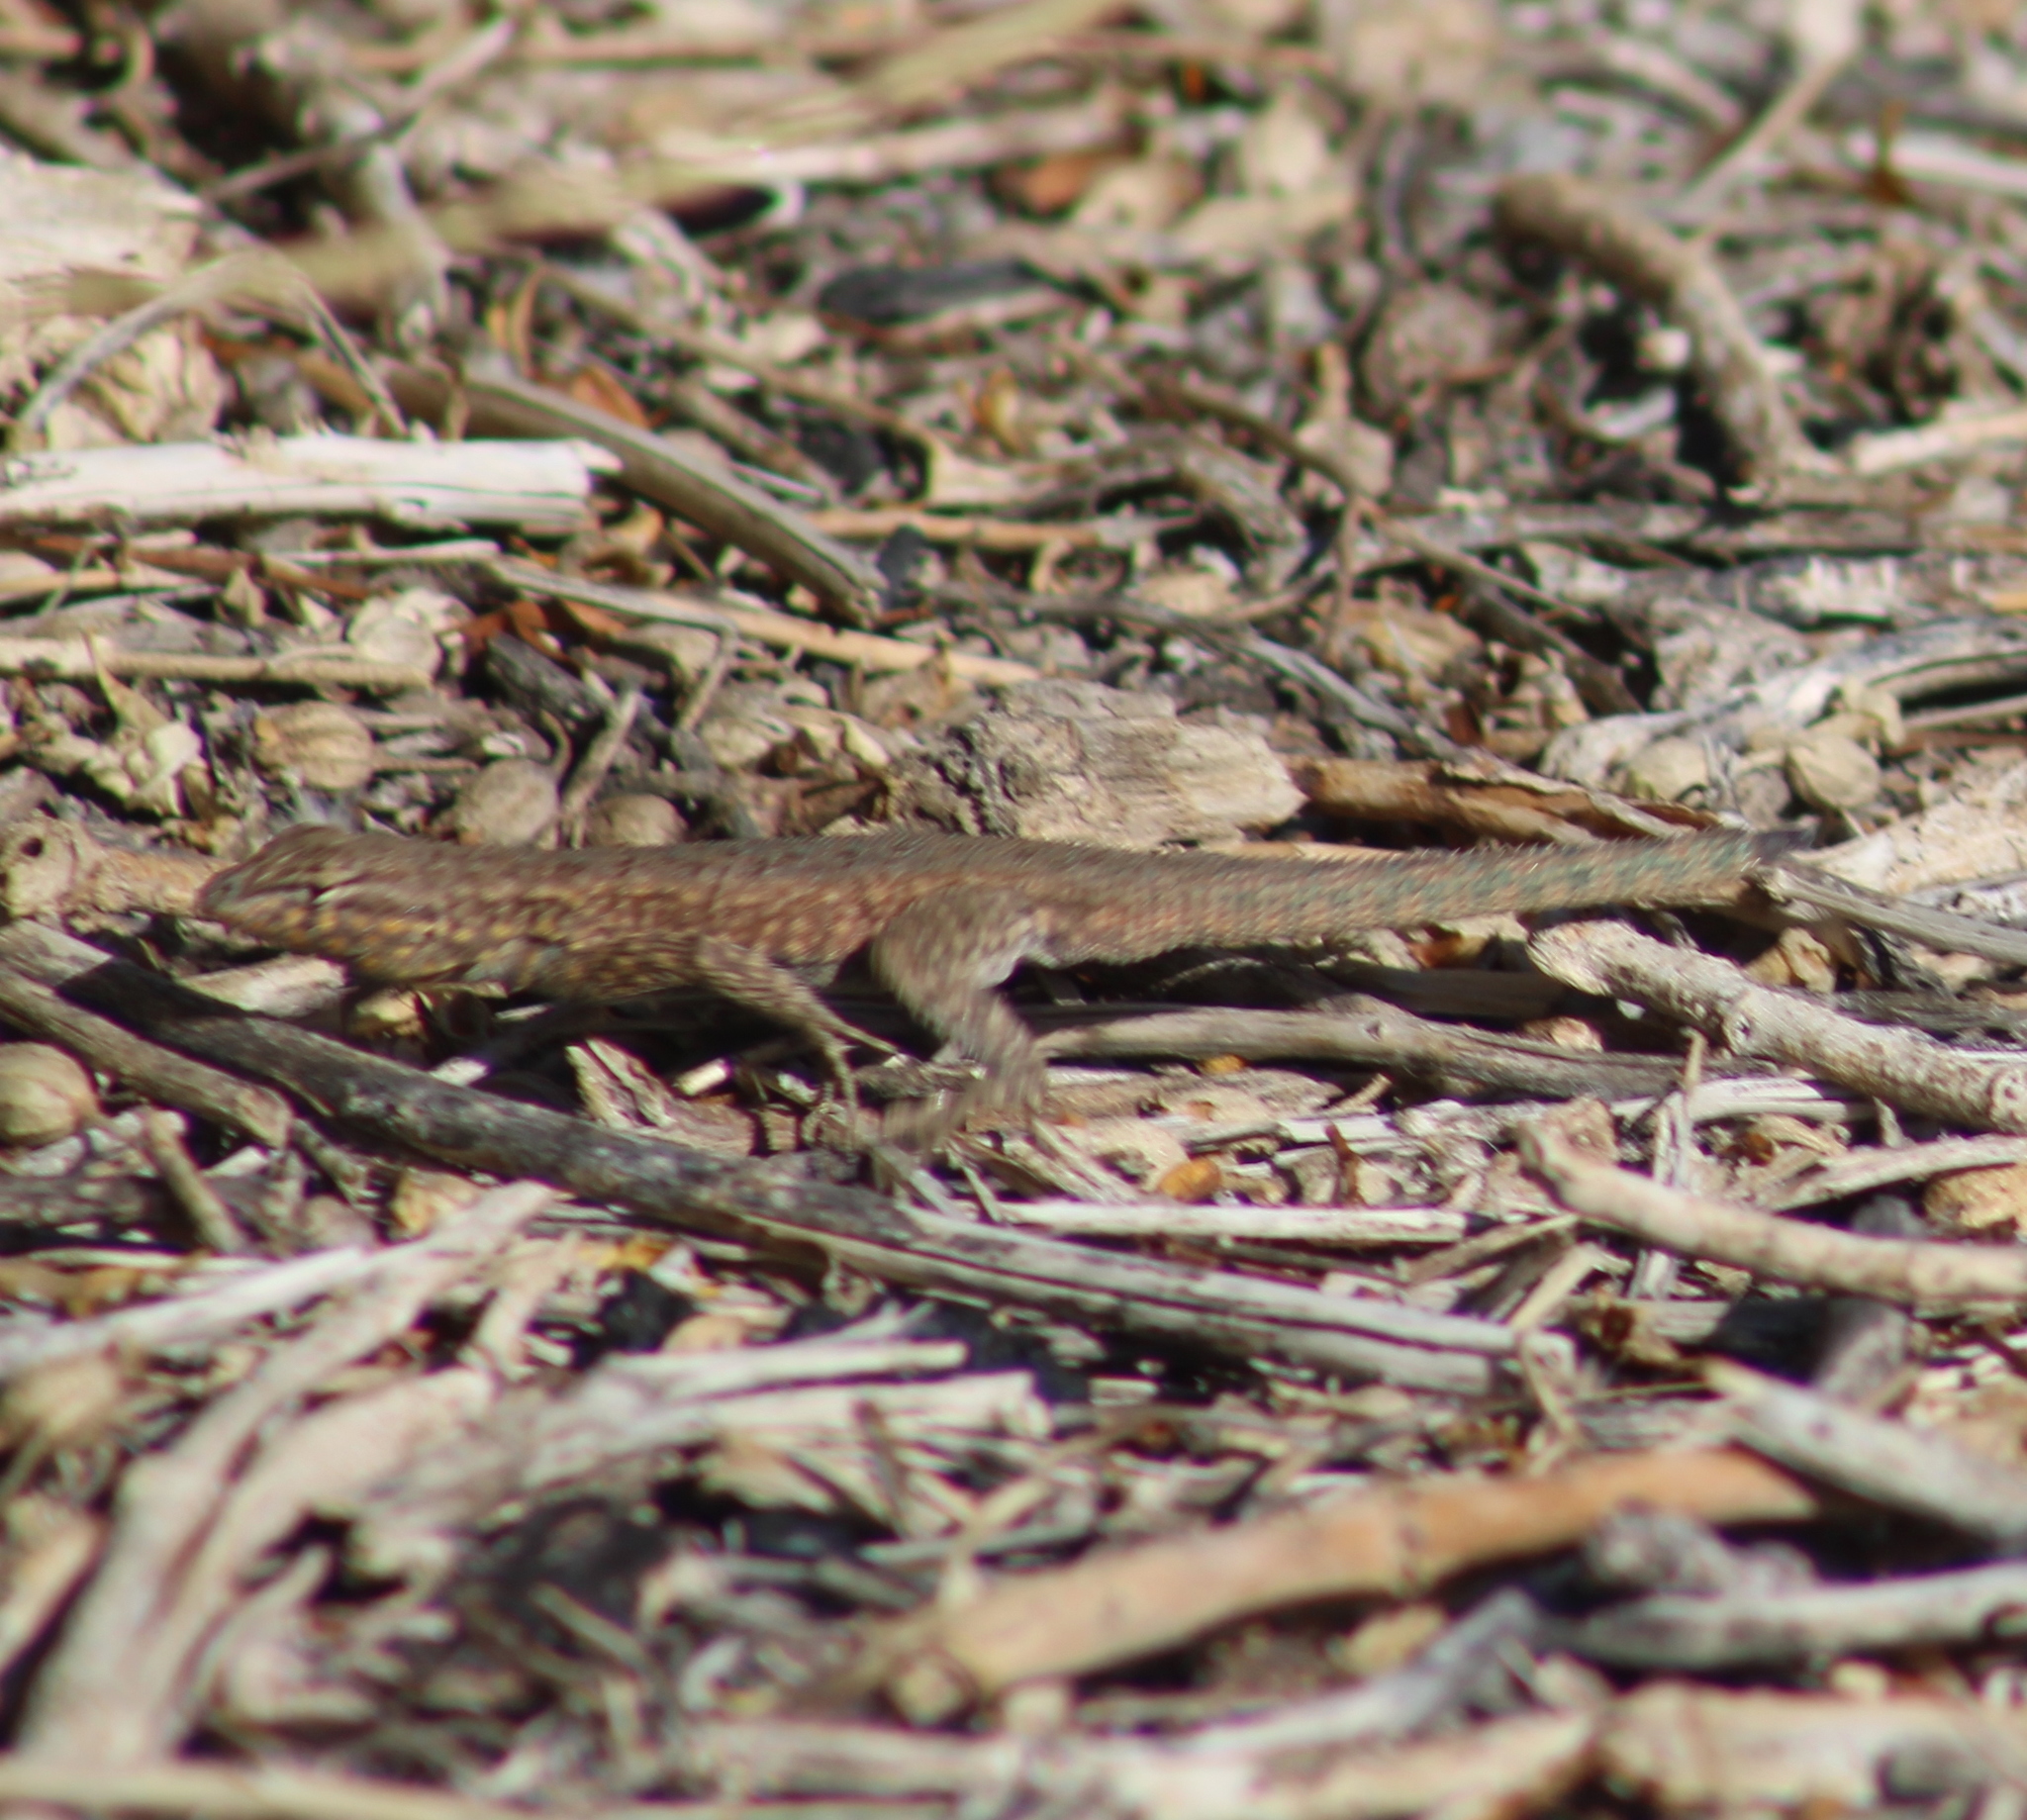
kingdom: Animalia
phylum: Chordata
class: Squamata
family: Phrynosomatidae
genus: Uta
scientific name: Uta stansburiana
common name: Side-blotched lizard
